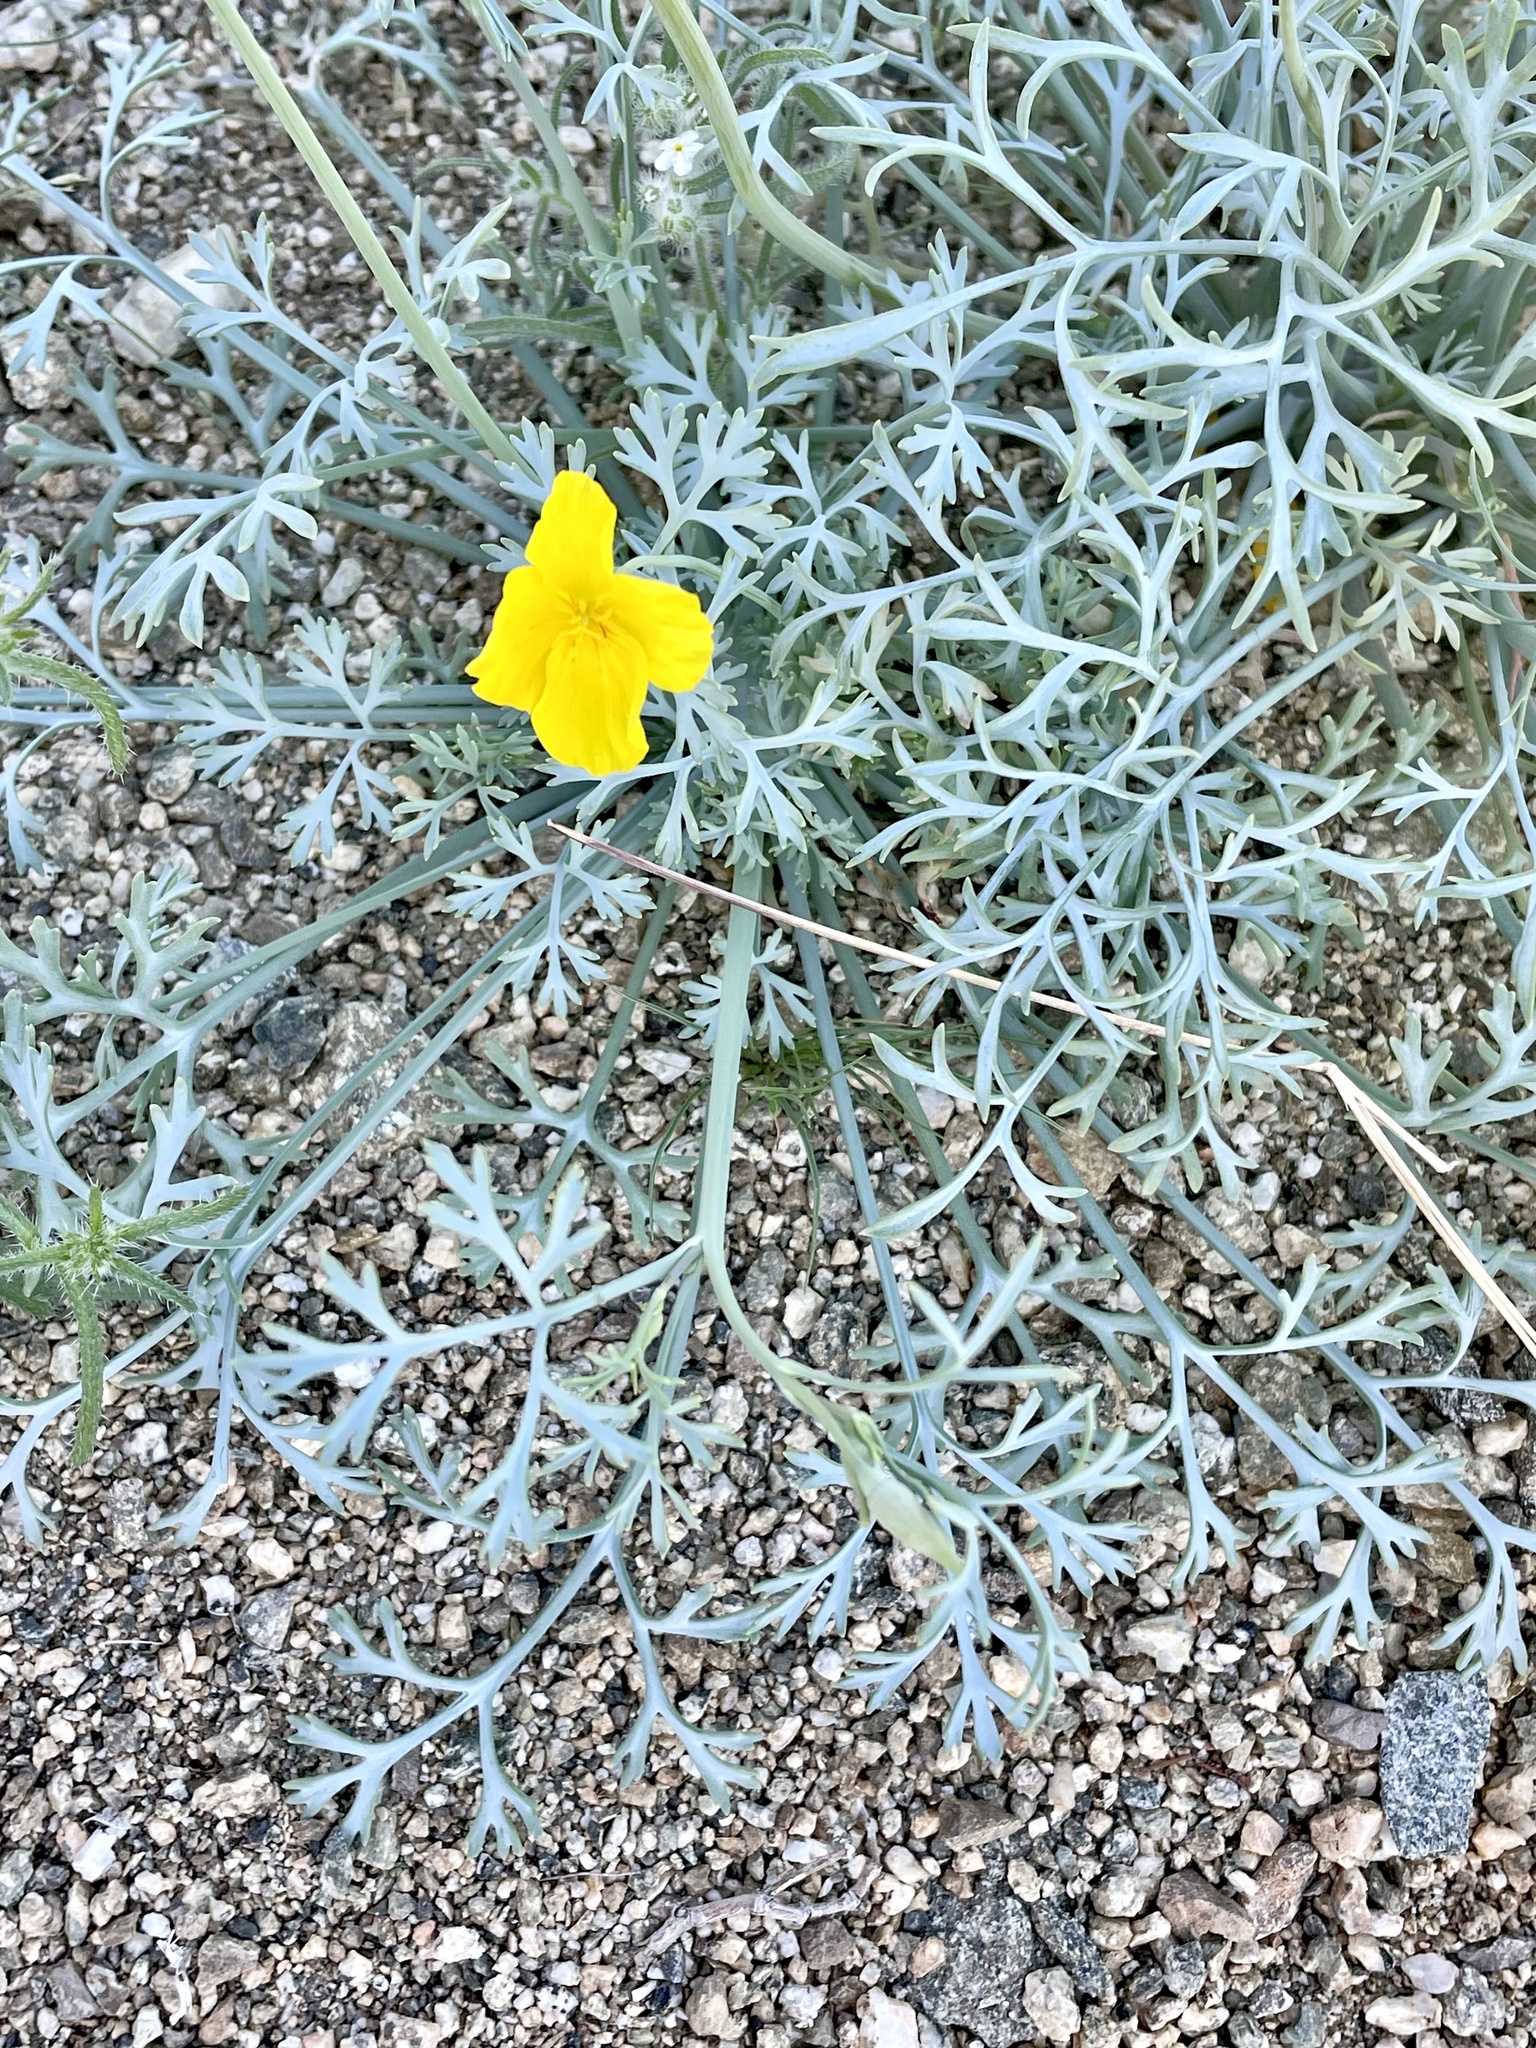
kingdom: Plantae
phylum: Tracheophyta
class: Magnoliopsida
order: Ranunculales
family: Papaveraceae
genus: Eschscholzia
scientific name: Eschscholzia parishii
